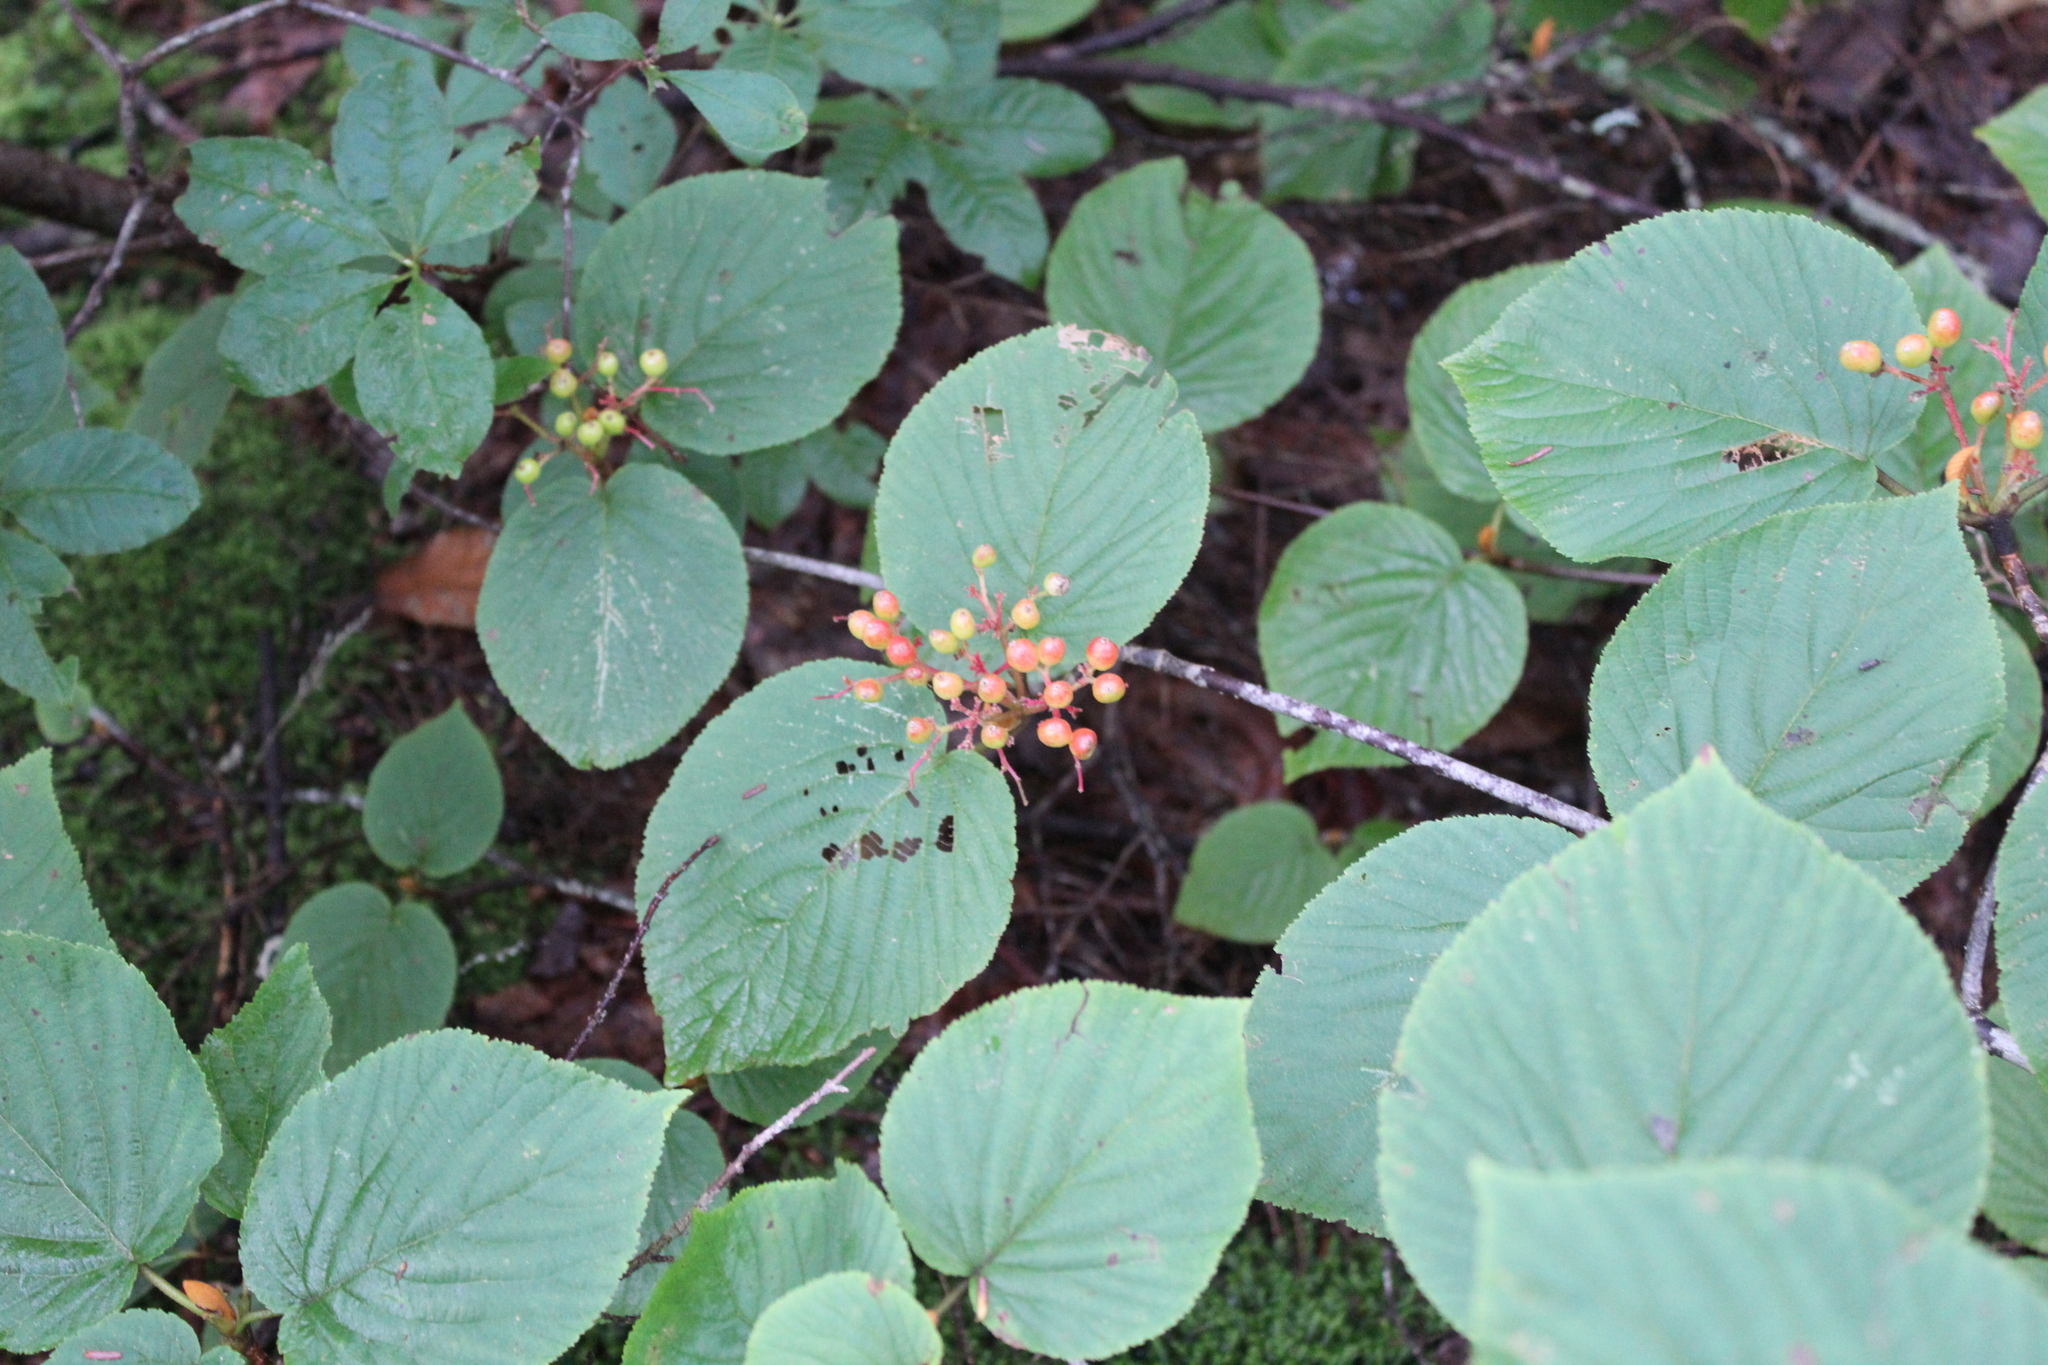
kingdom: Plantae
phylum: Tracheophyta
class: Magnoliopsida
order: Dipsacales
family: Viburnaceae
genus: Viburnum
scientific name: Viburnum lantanoides
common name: Hobblebush
